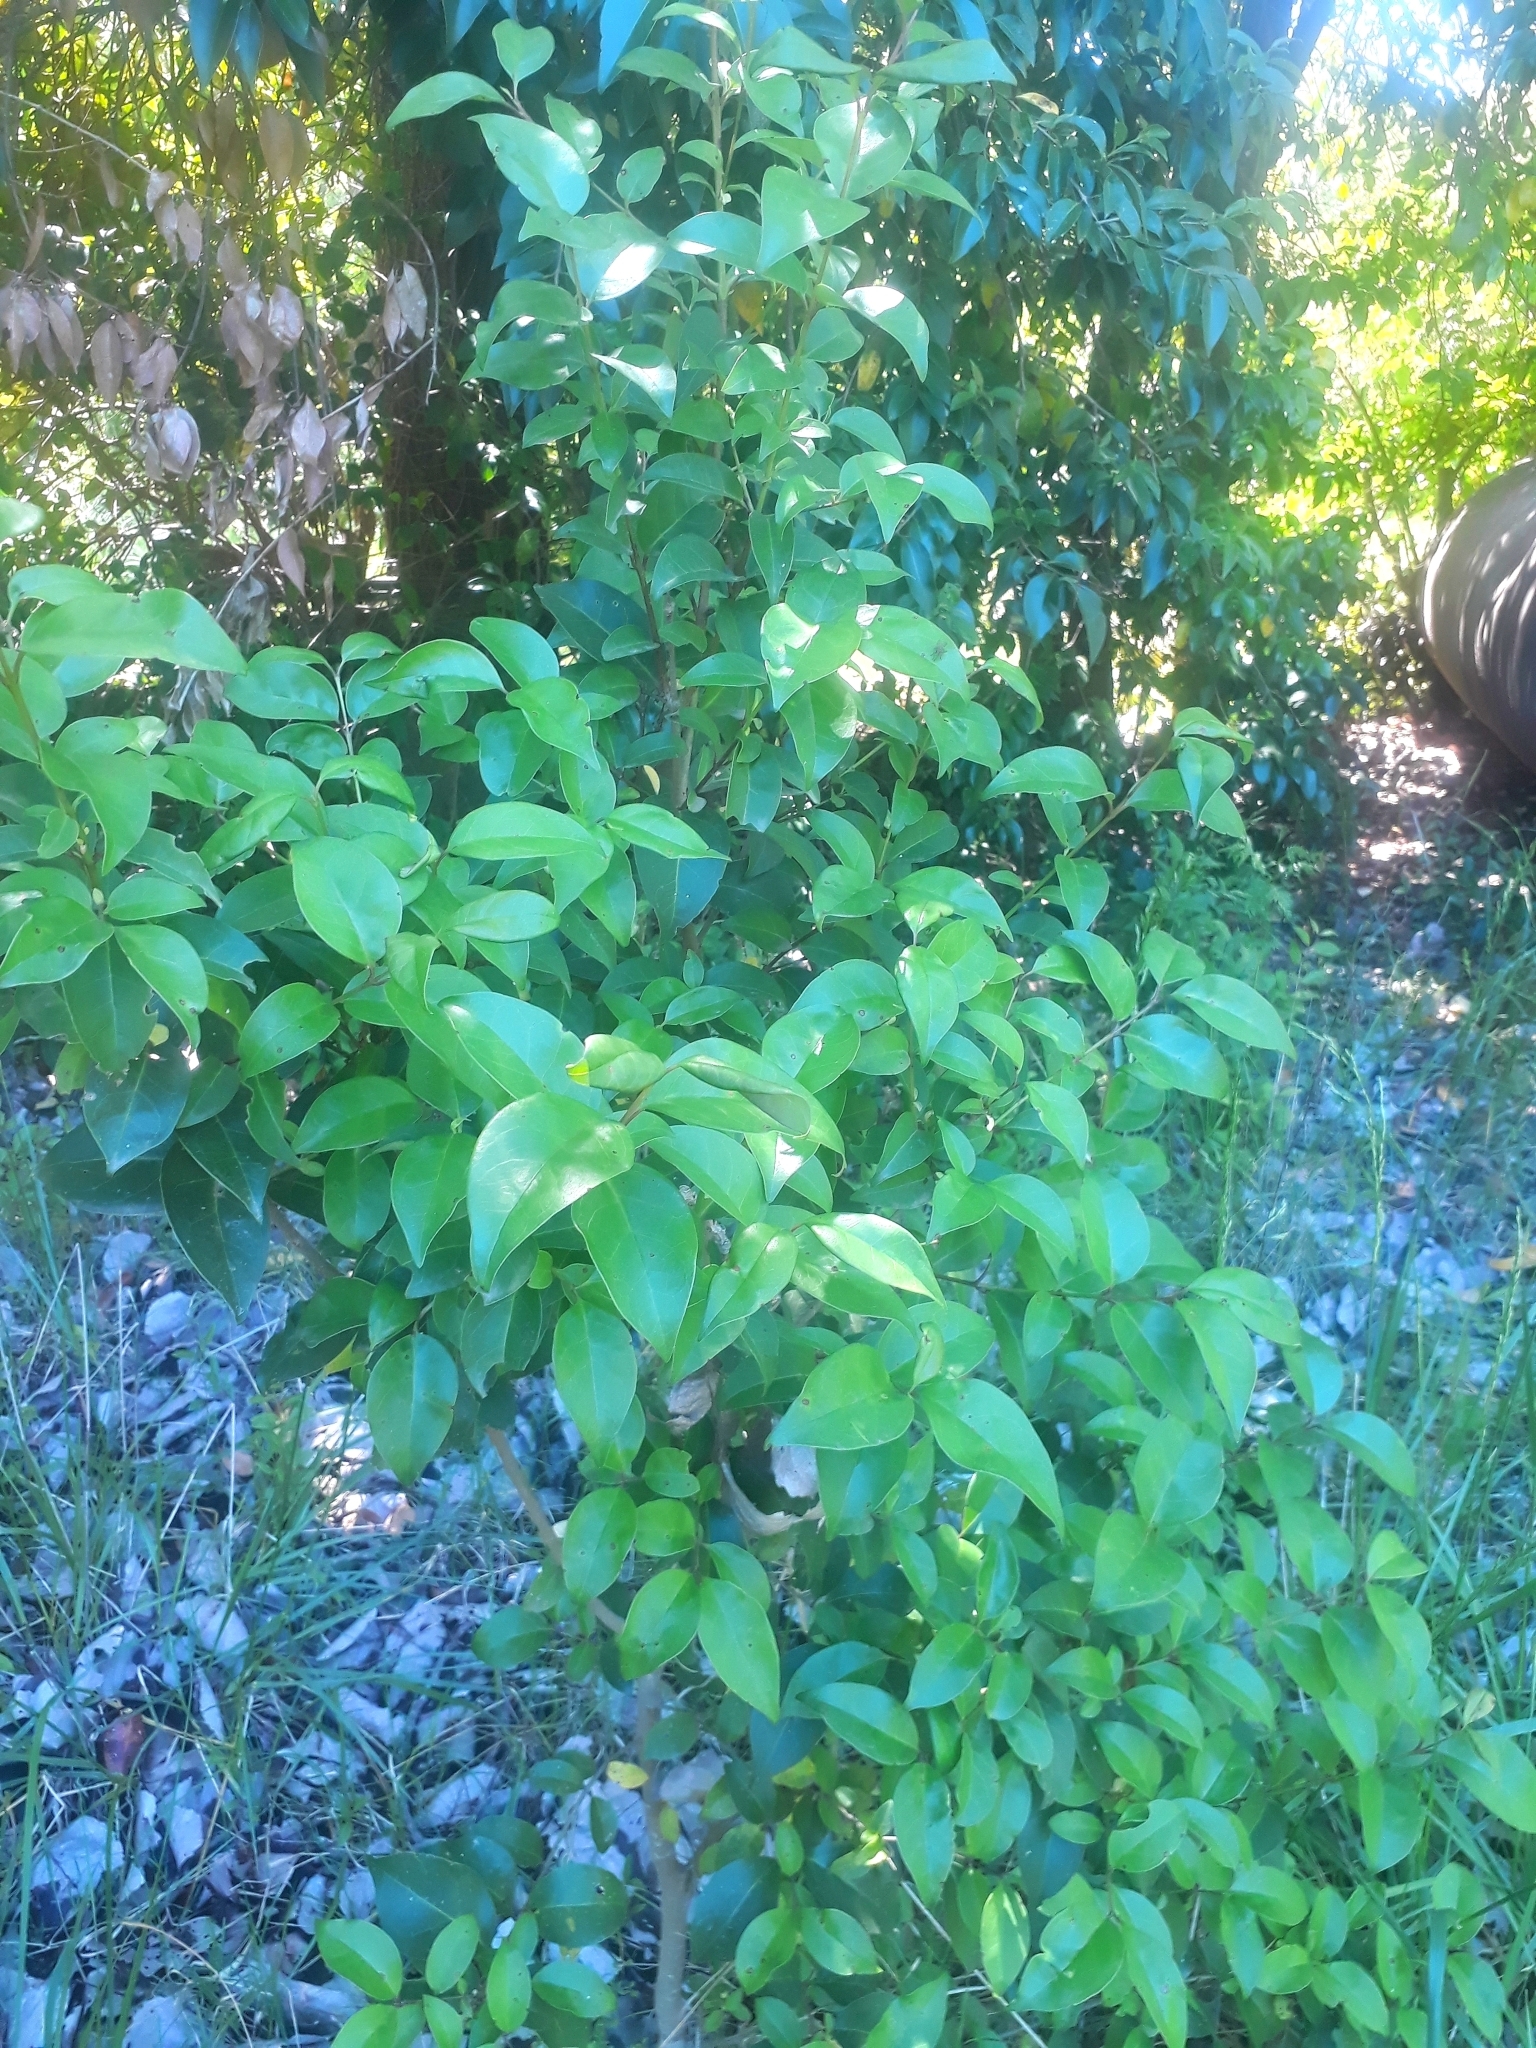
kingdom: Plantae
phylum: Tracheophyta
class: Magnoliopsida
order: Lamiales
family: Oleaceae
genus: Ligustrum
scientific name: Ligustrum lucidum
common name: Glossy privet
